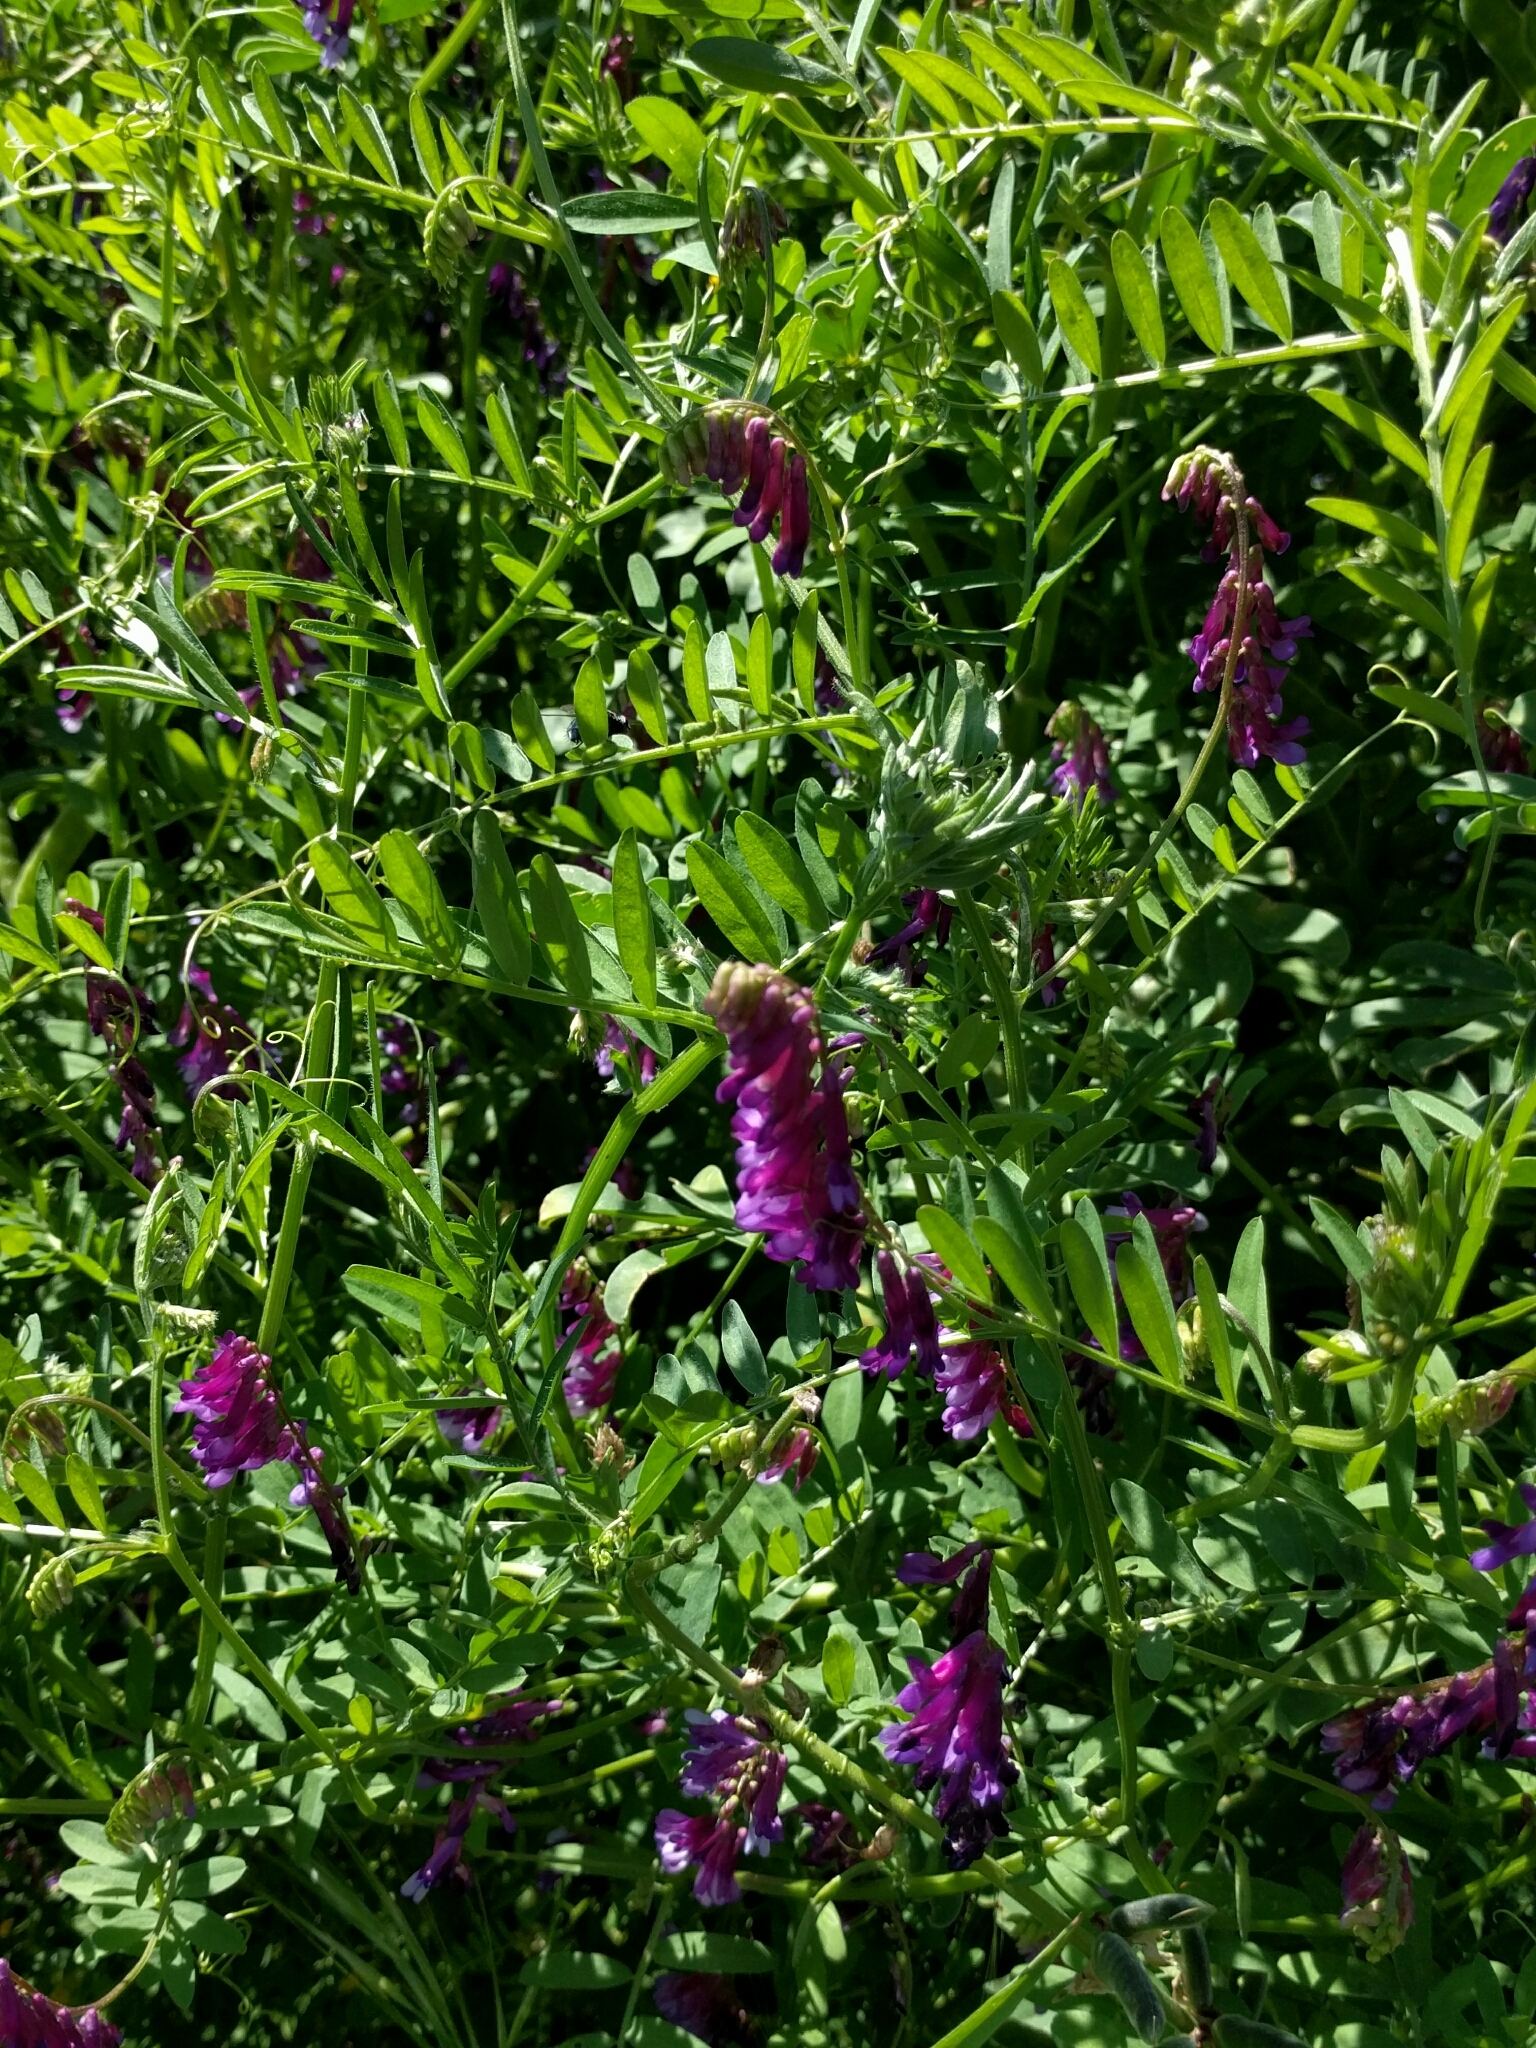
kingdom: Plantae
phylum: Tracheophyta
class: Magnoliopsida
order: Fabales
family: Fabaceae
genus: Vicia
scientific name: Vicia villosa
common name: Fodder vetch
